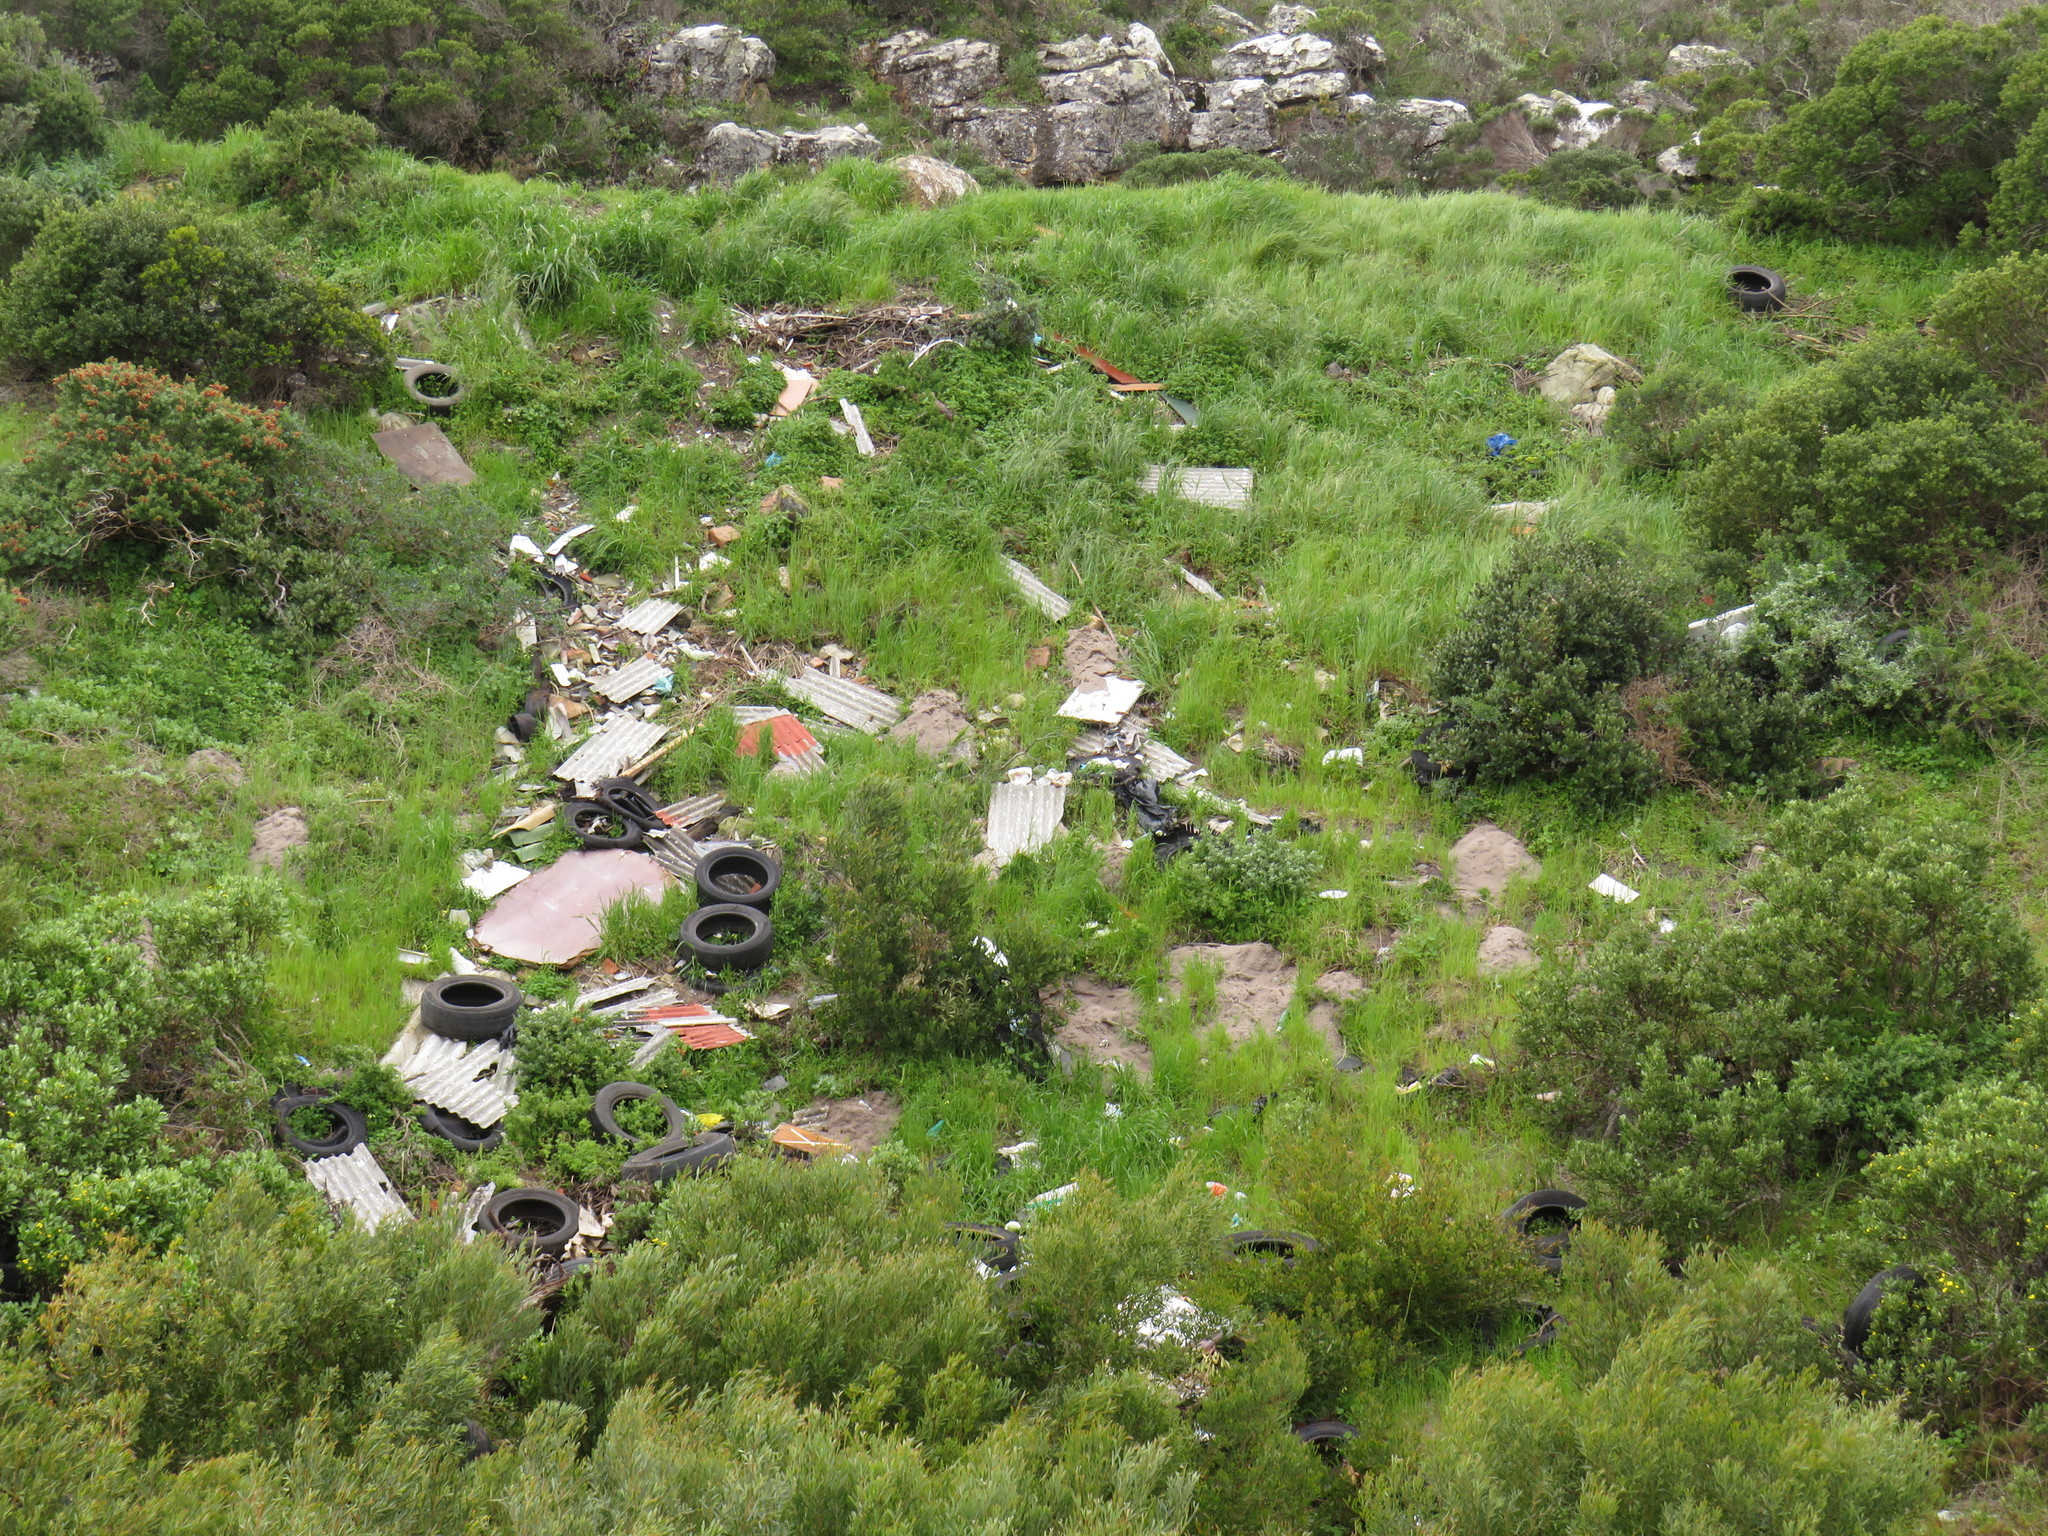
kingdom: Plantae
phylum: Tracheophyta
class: Magnoliopsida
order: Fabales
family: Fabaceae
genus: Acacia
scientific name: Acacia cyclops
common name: Coastal wattle
